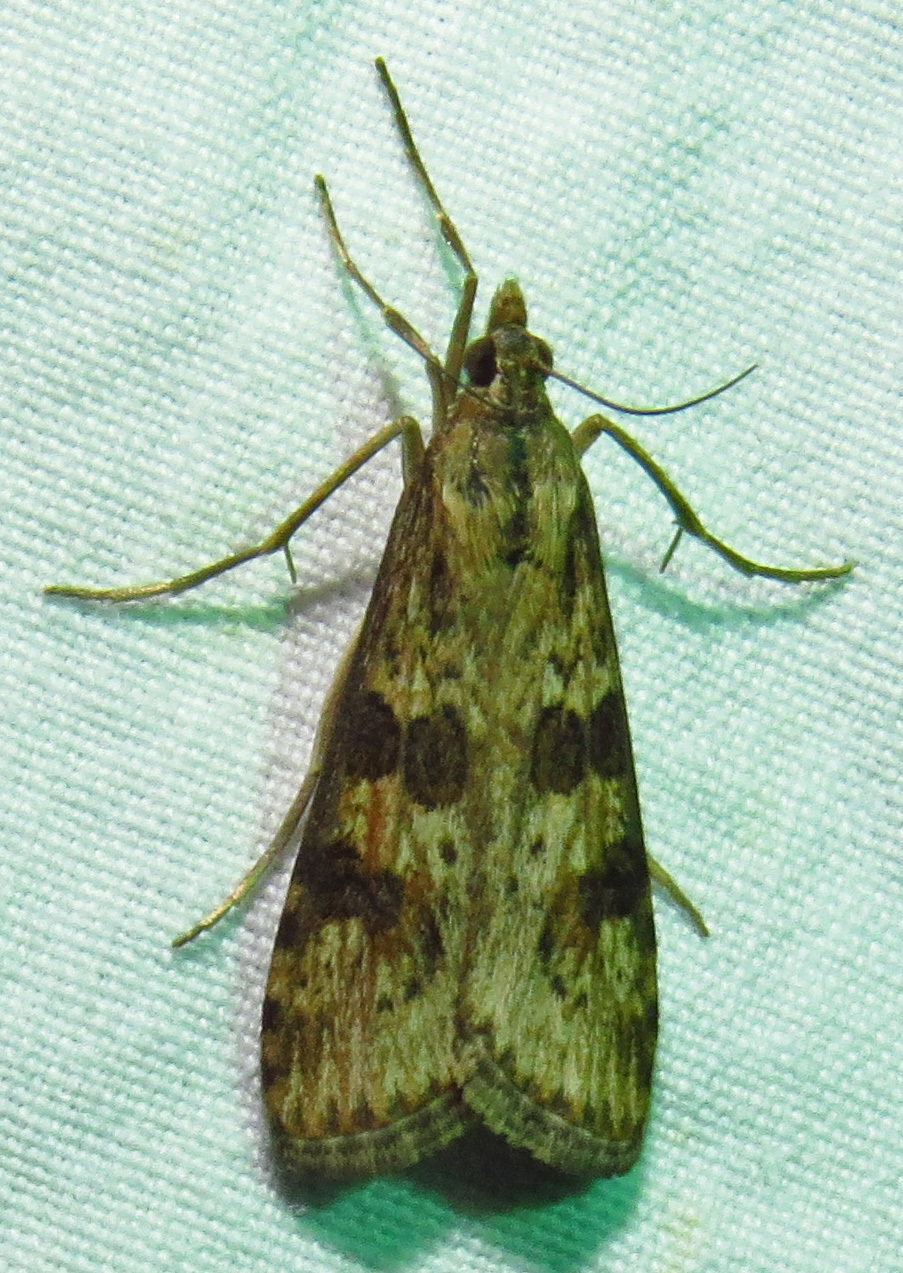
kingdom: Animalia
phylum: Arthropoda
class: Insecta
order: Lepidoptera
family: Crambidae
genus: Nomophila
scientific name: Nomophila nearctica
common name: American rush veneer
